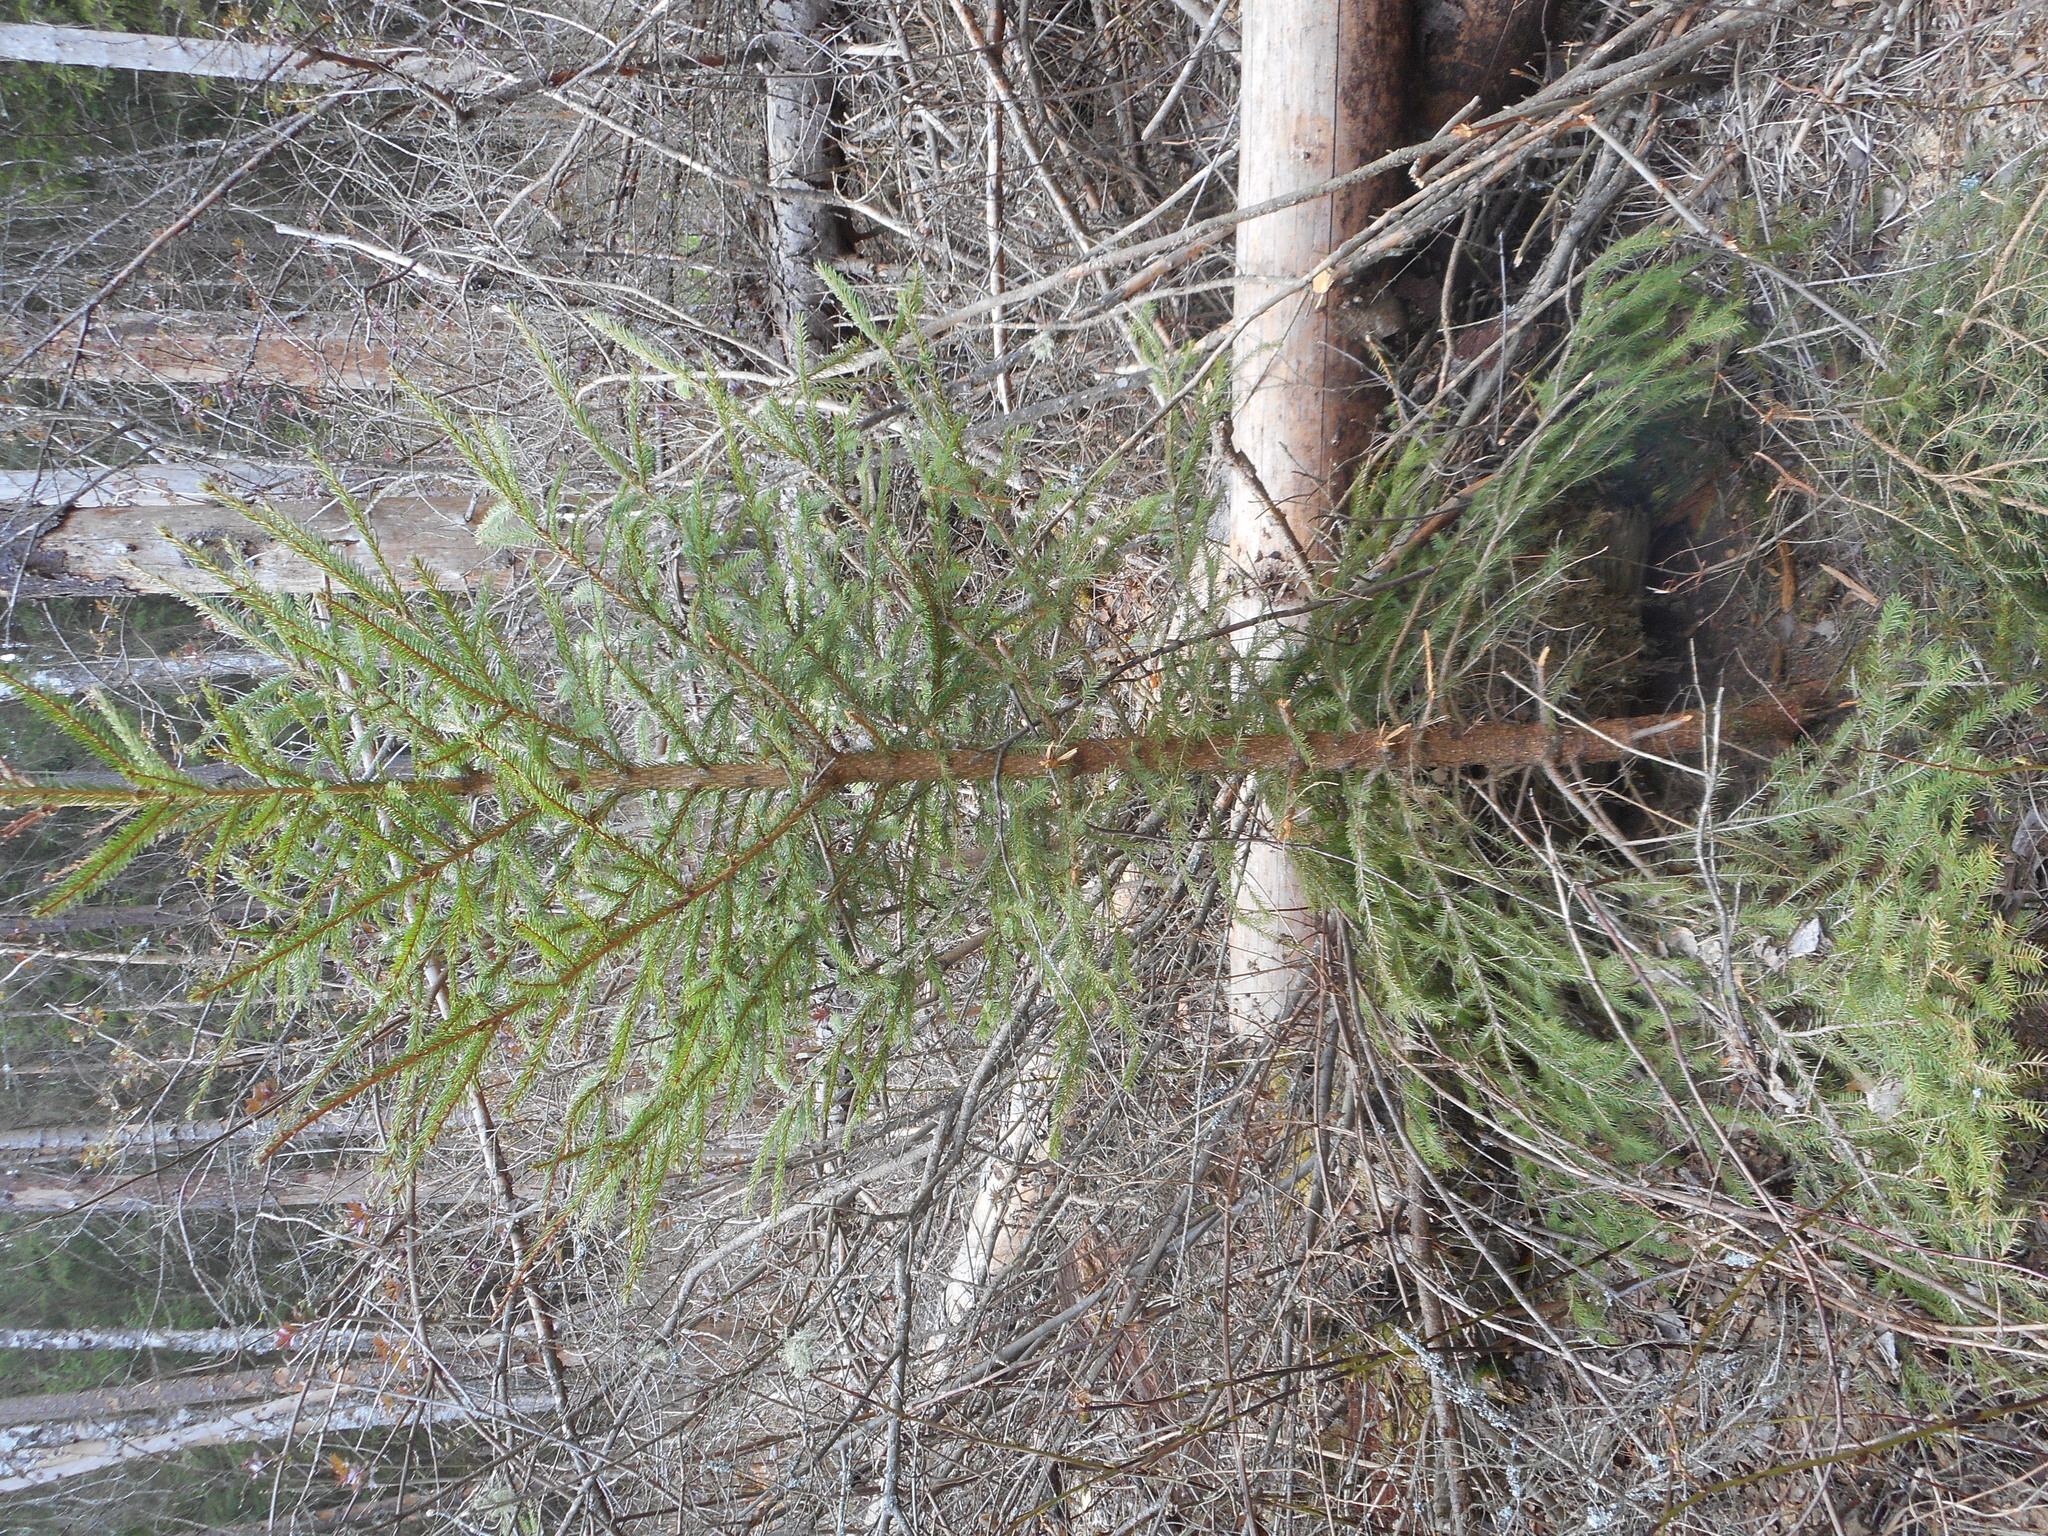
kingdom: Plantae
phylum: Tracheophyta
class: Pinopsida
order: Pinales
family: Pinaceae
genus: Picea
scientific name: Picea abies
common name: Norway spruce
